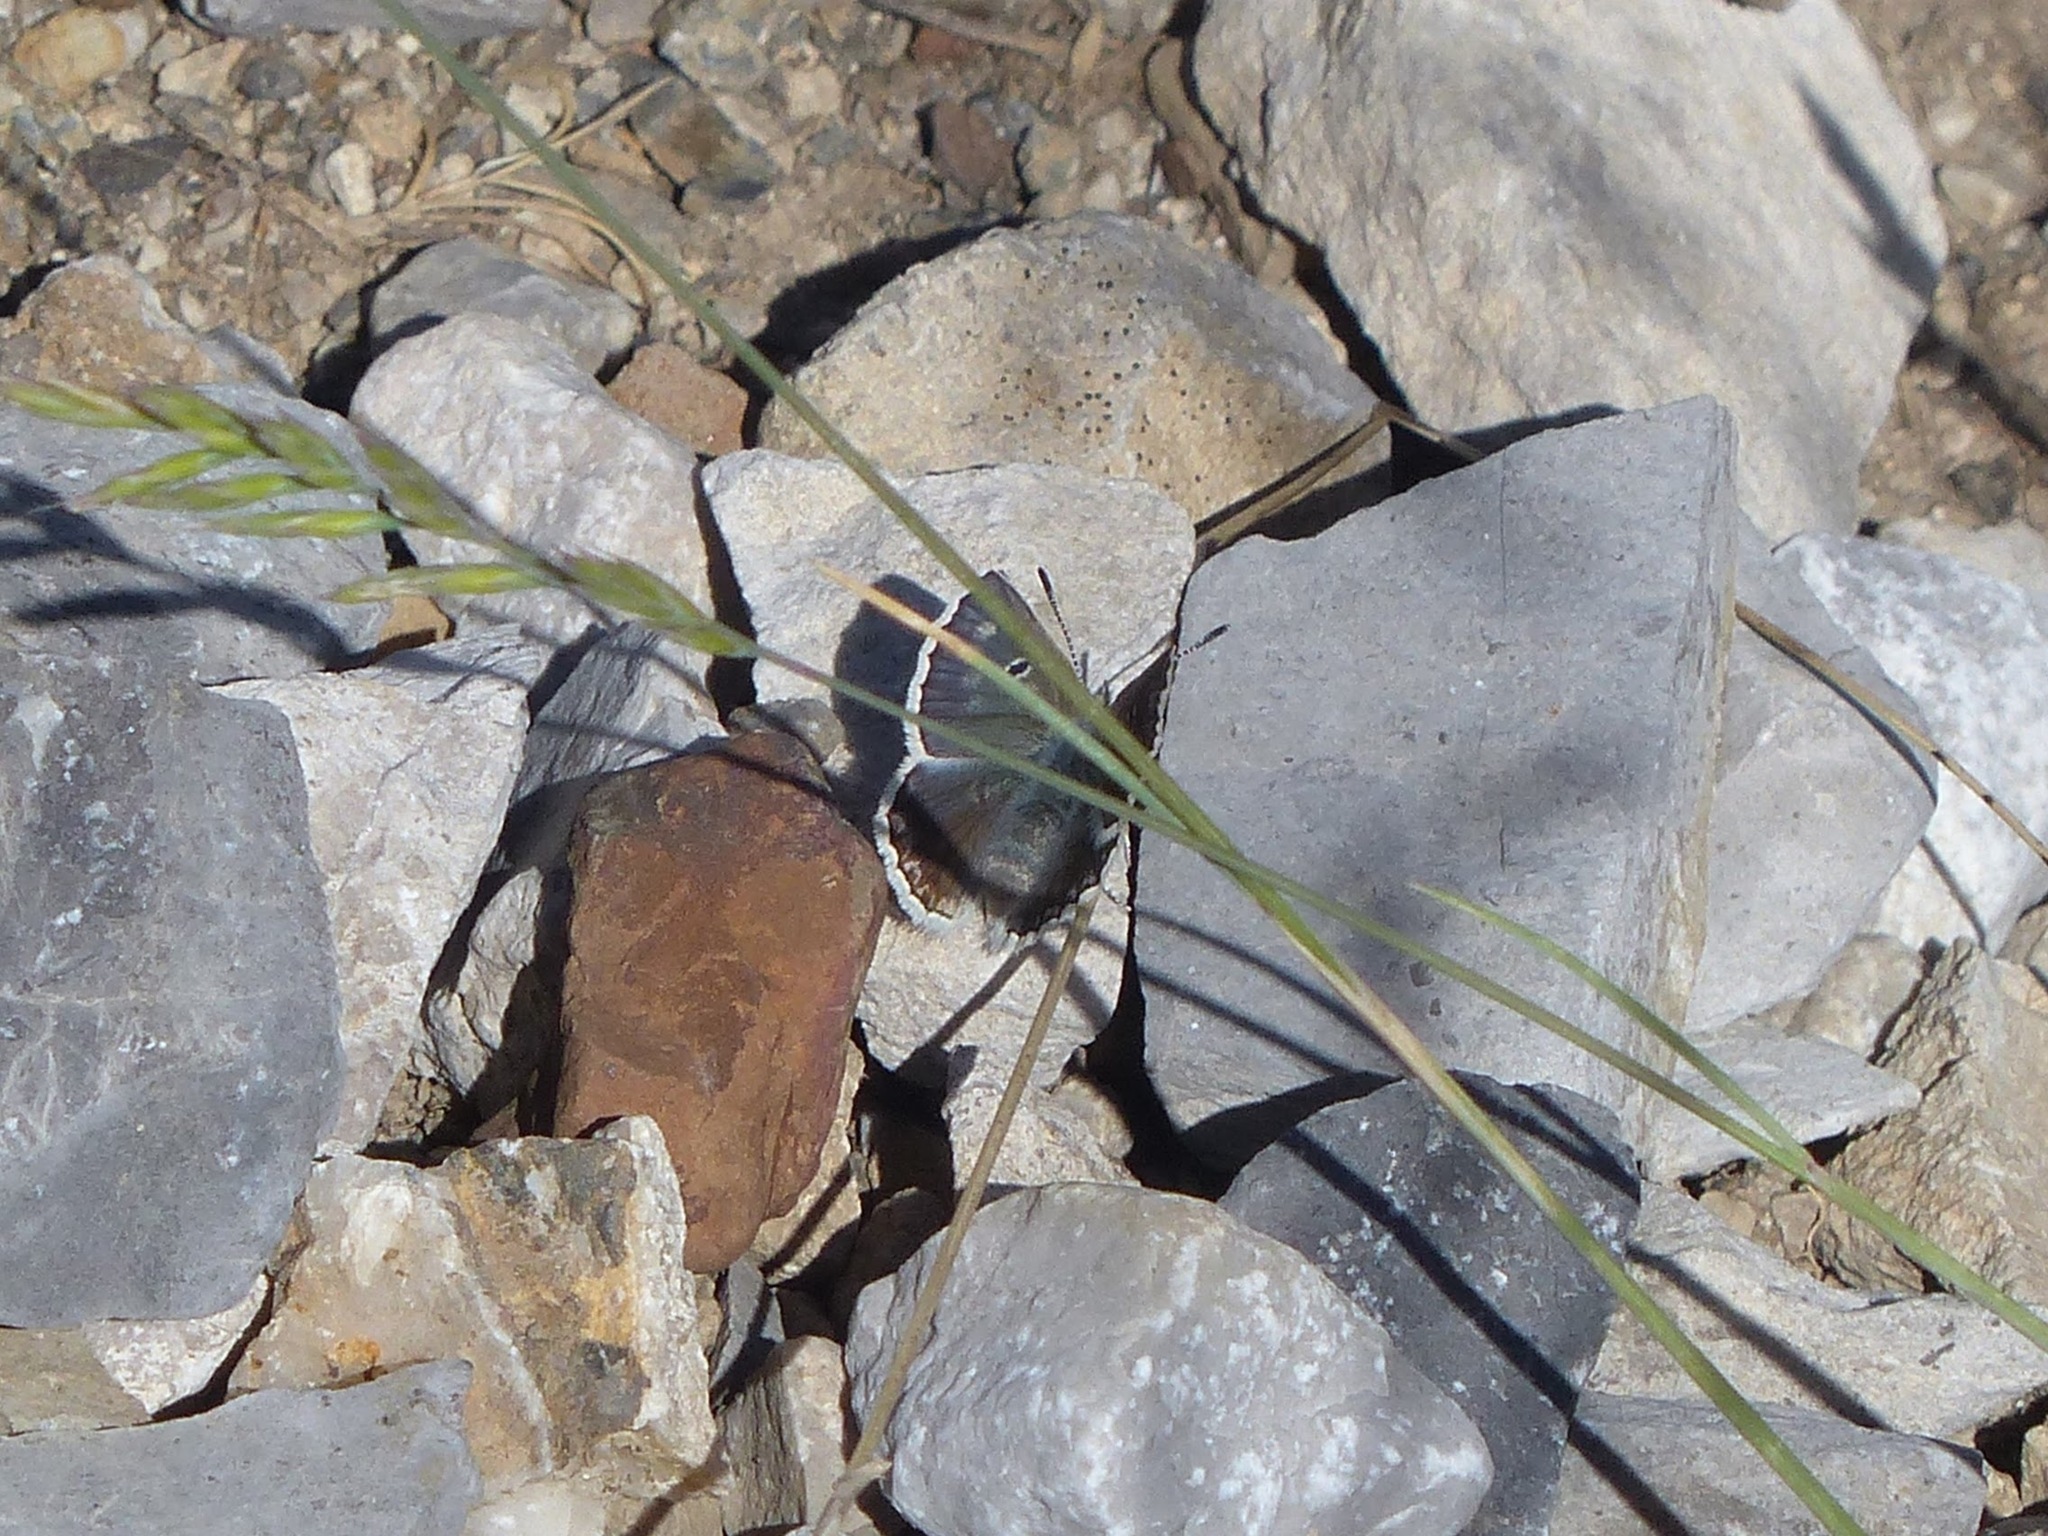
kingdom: Animalia
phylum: Arthropoda
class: Insecta
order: Lepidoptera
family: Lycaenidae
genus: Agriades
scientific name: Agriades pyrenaica
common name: Gavarnie blue
